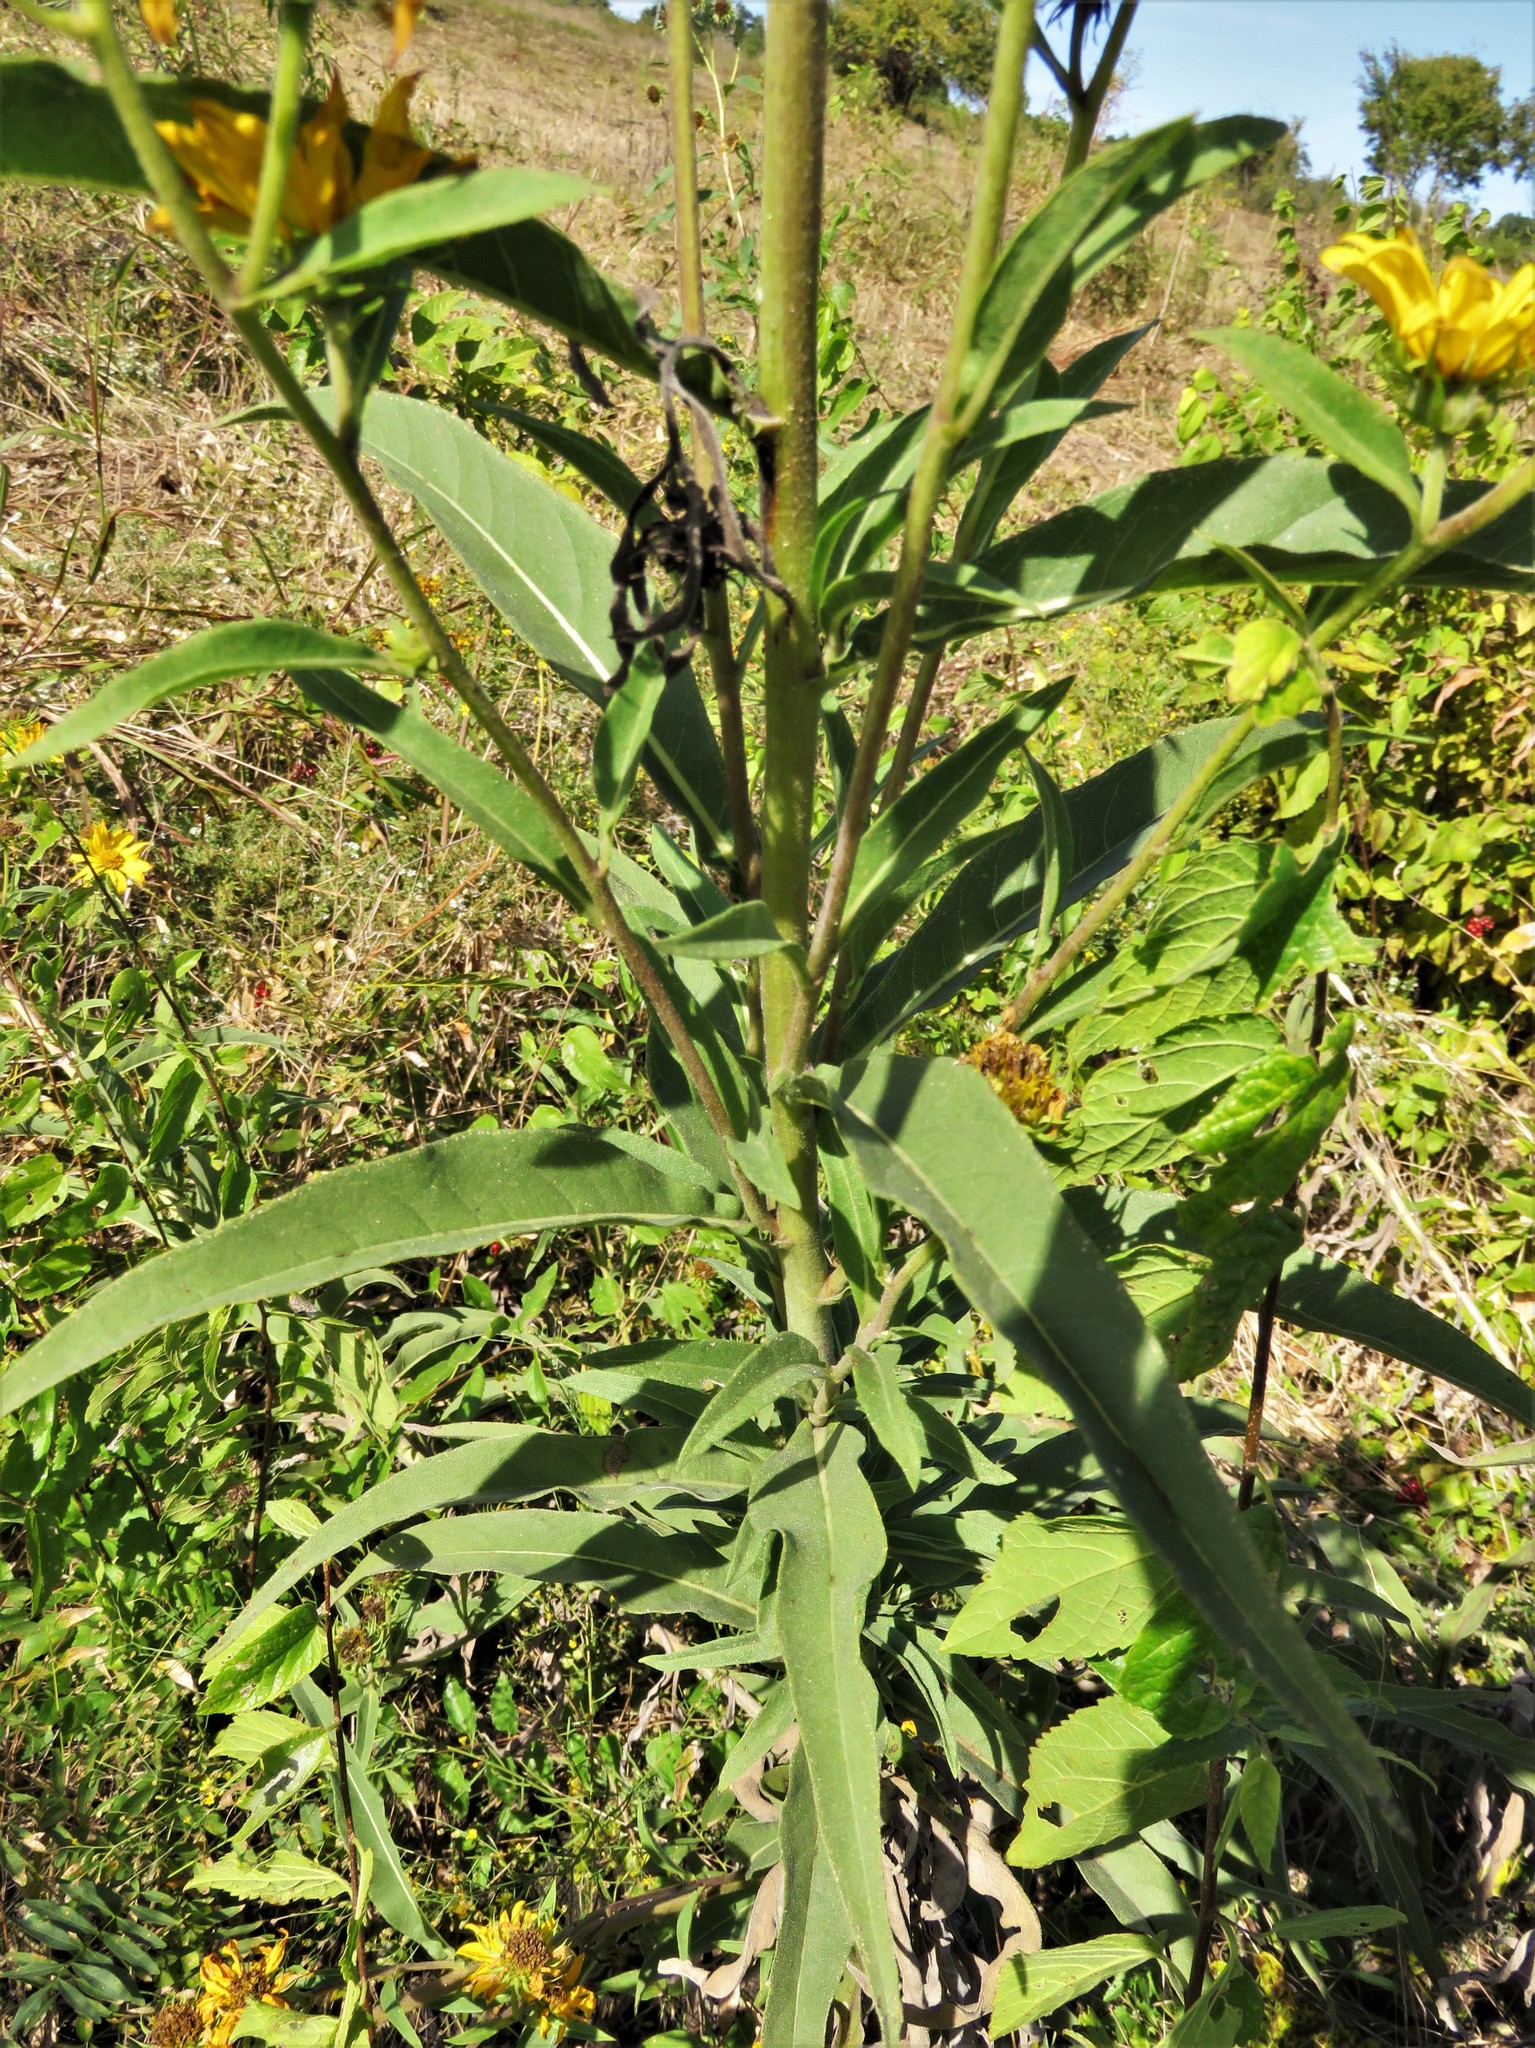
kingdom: Plantae
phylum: Tracheophyta
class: Magnoliopsida
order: Asterales
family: Asteraceae
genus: Helianthus
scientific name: Helianthus maximiliani
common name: Maximilian's sunflower
